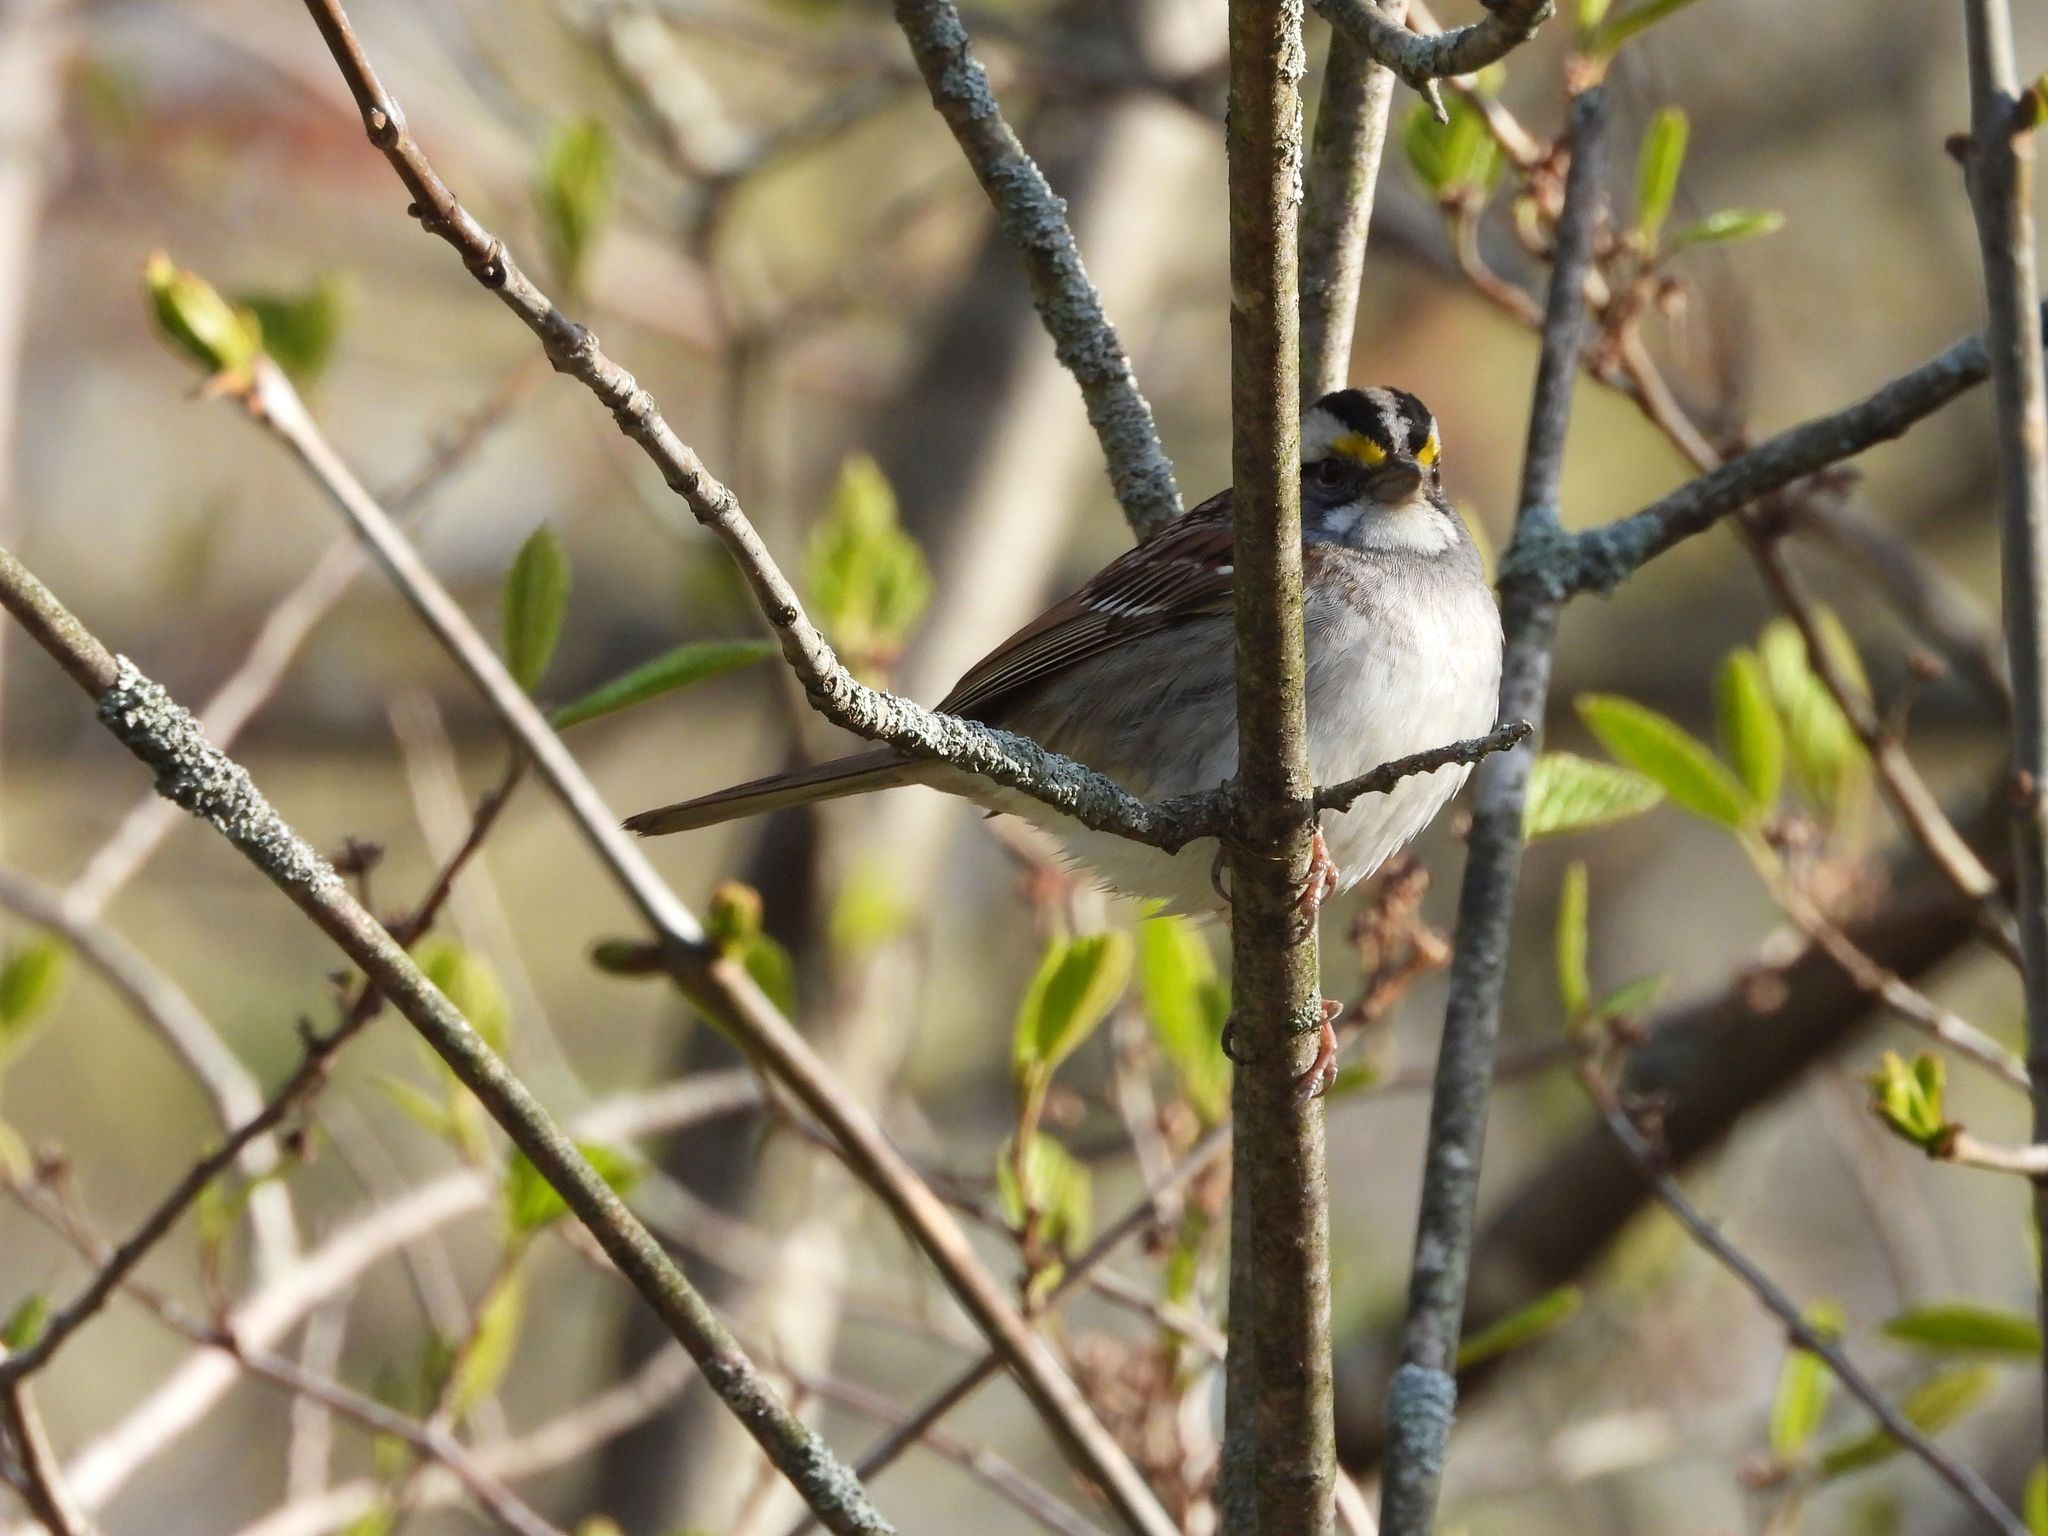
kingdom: Animalia
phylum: Chordata
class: Aves
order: Passeriformes
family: Passerellidae
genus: Zonotrichia
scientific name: Zonotrichia albicollis
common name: White-throated sparrow
